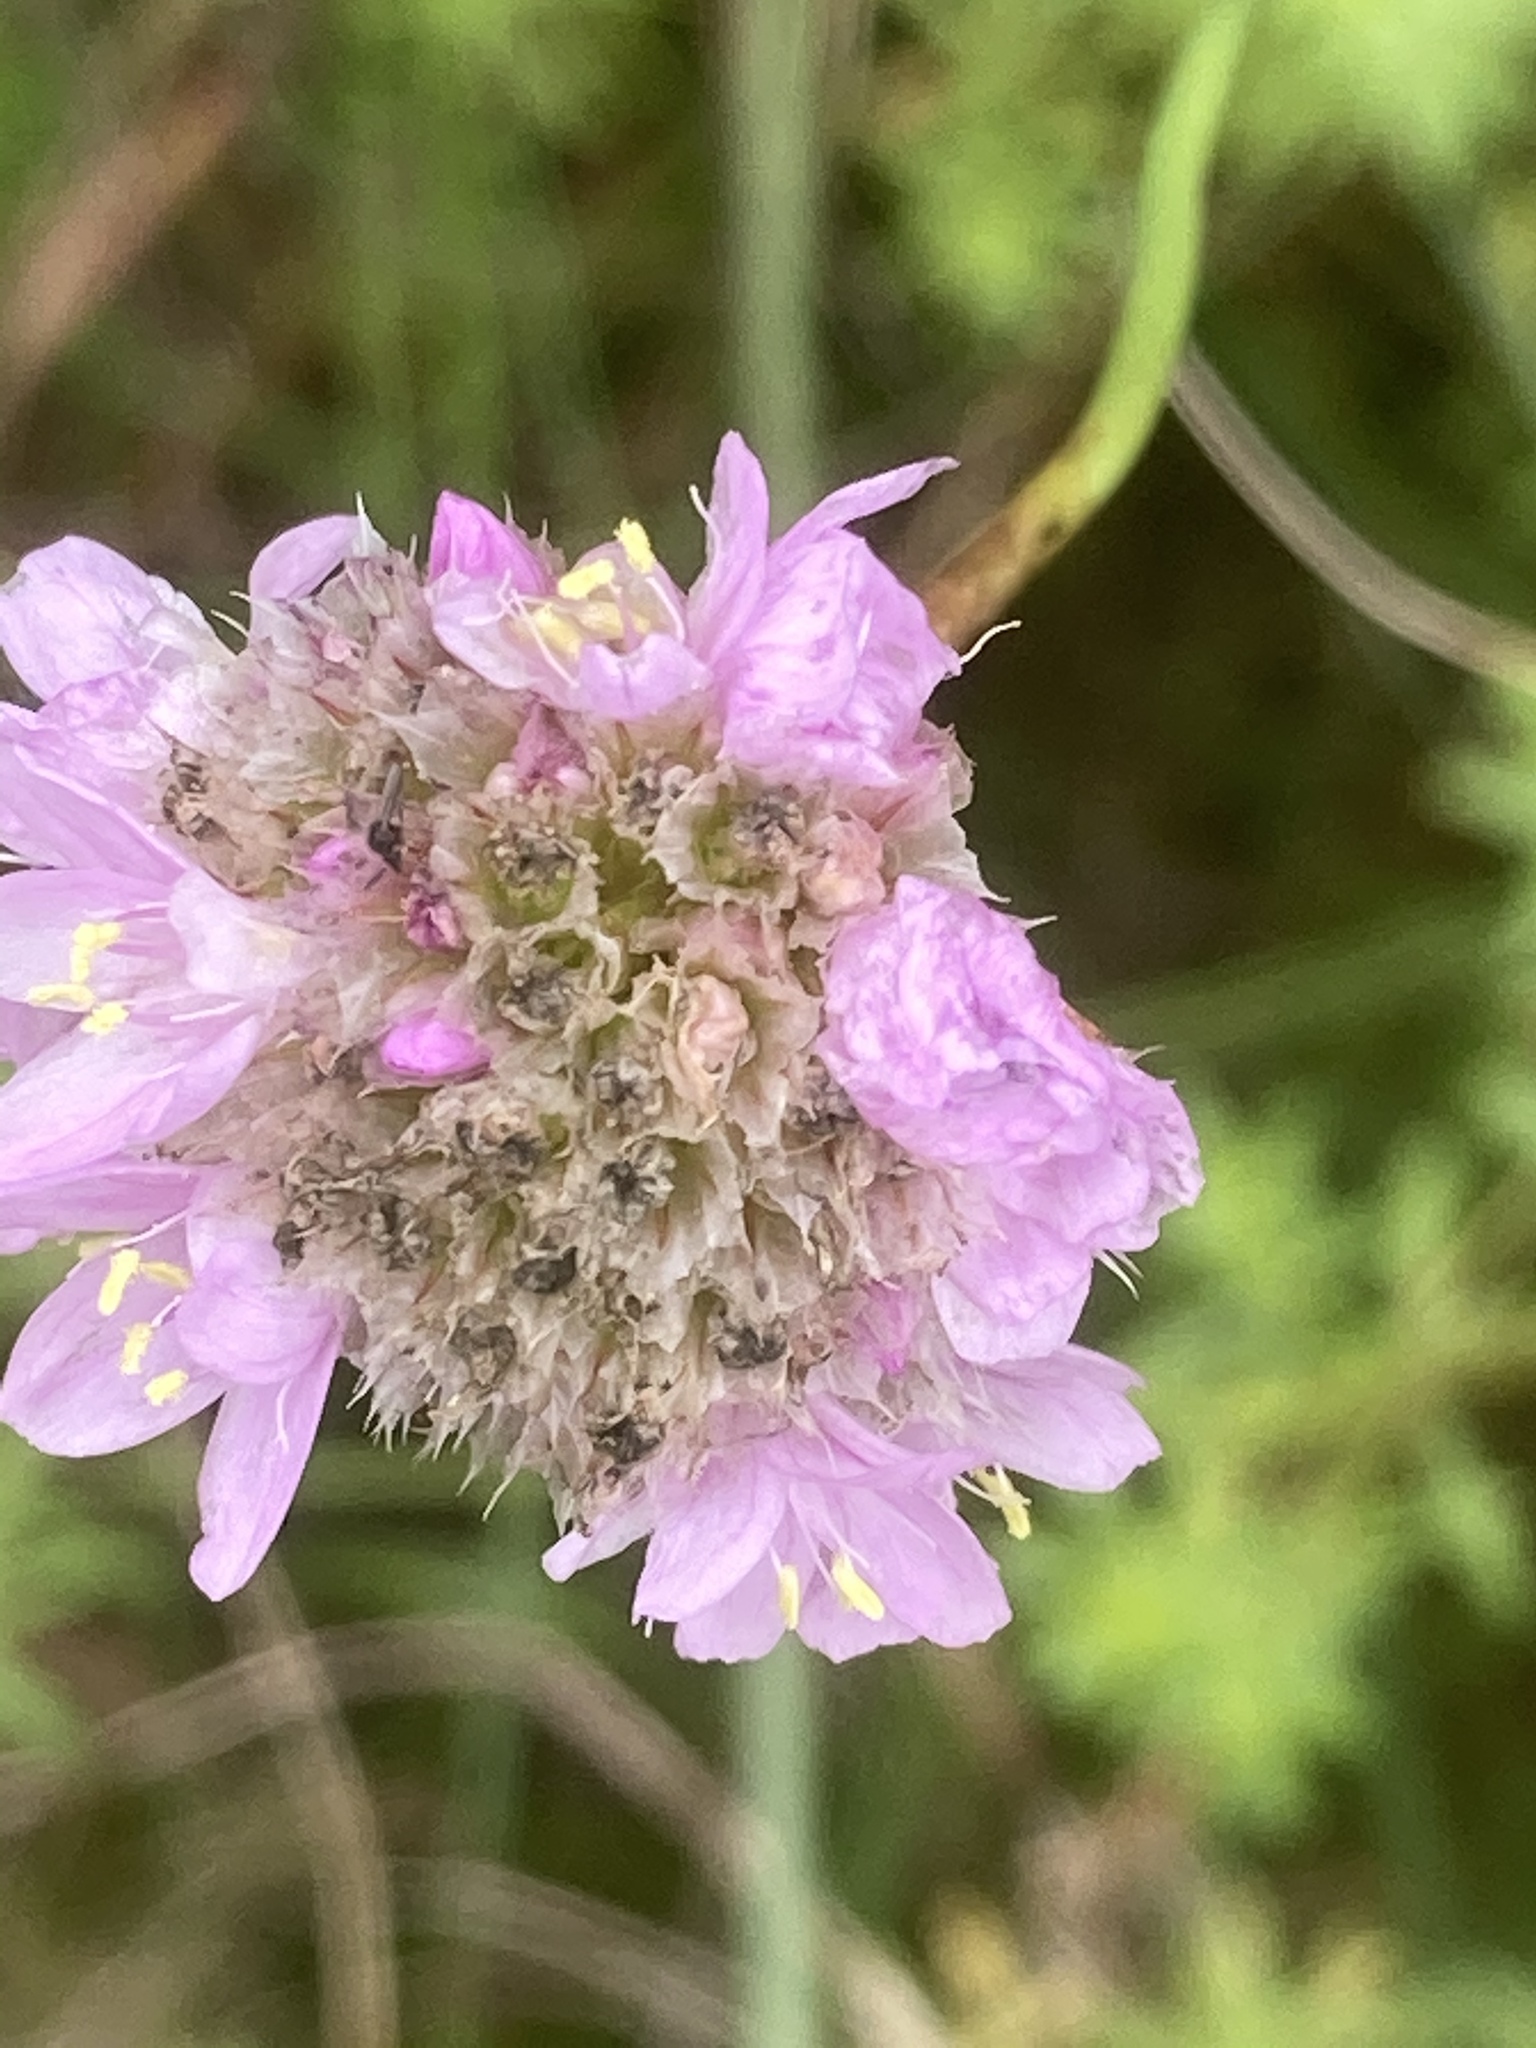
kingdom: Plantae
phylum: Tracheophyta
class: Magnoliopsida
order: Caryophyllales
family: Plumbaginaceae
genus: Armeria
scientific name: Armeria maritima
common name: Thrift
